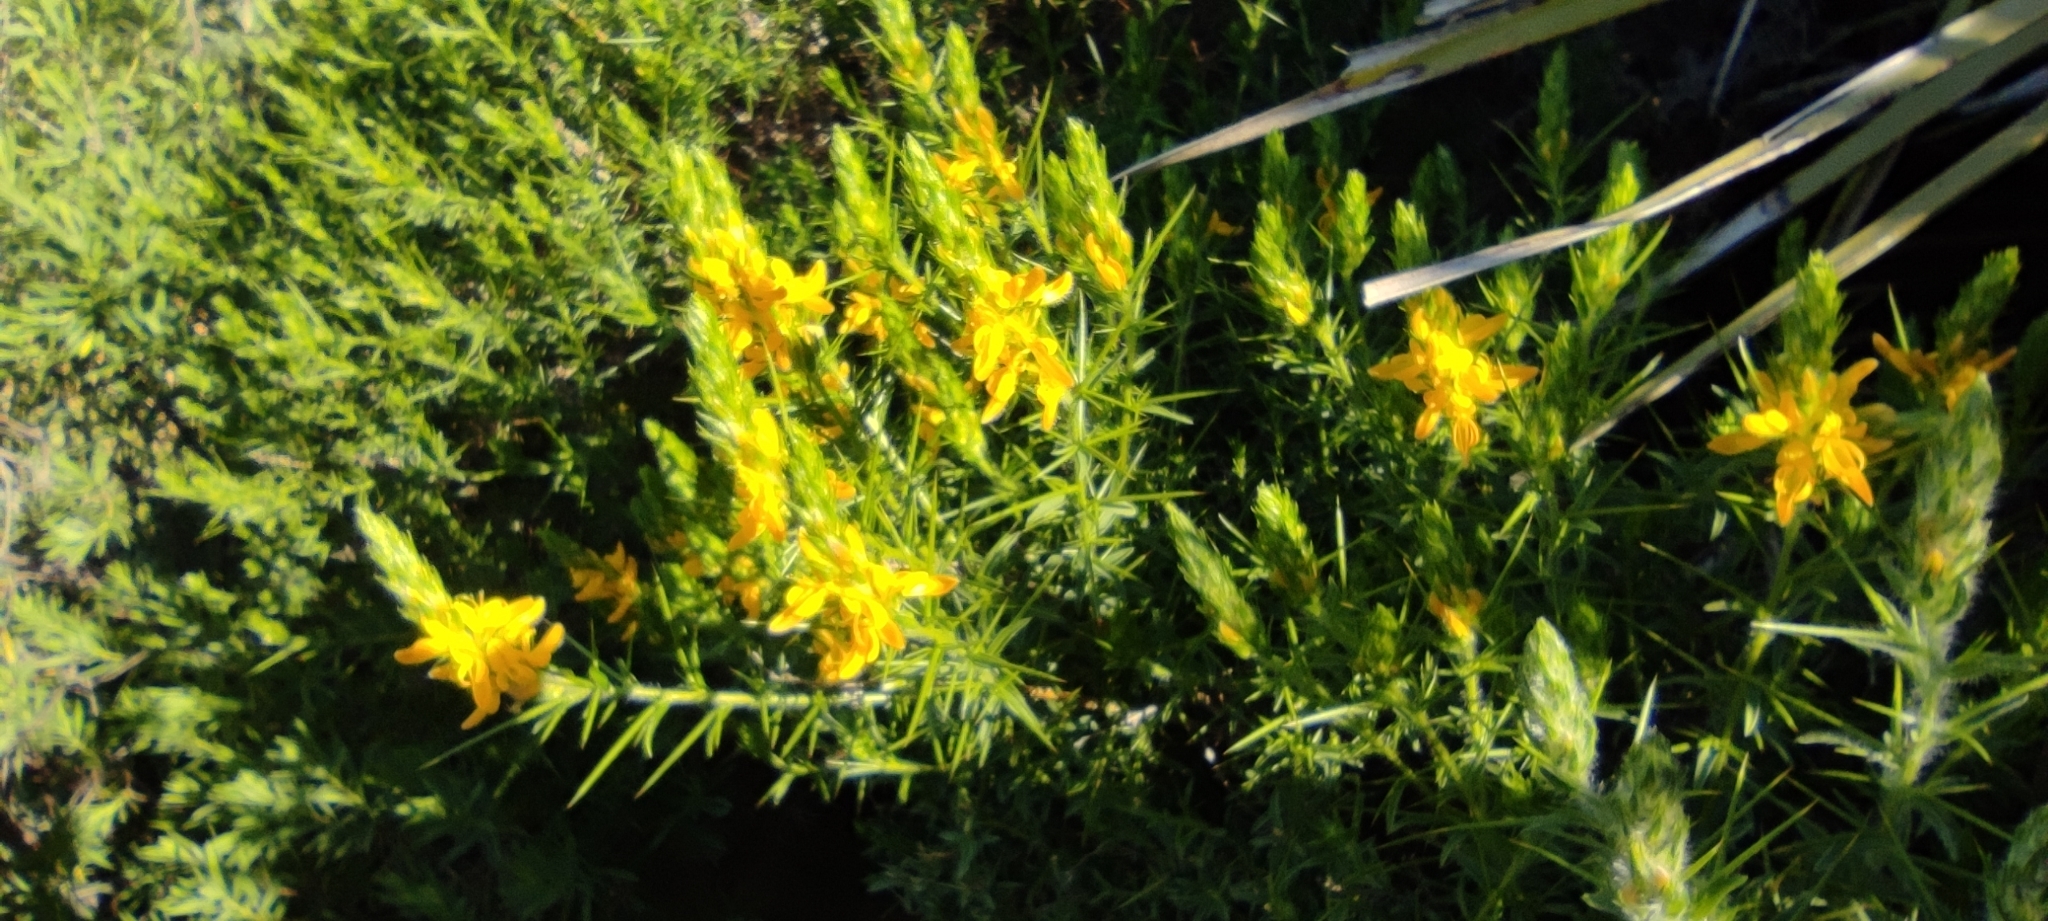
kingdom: Plantae
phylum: Tracheophyta
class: Magnoliopsida
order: Fabales
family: Fabaceae
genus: Genista
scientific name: Genista hirsuta
